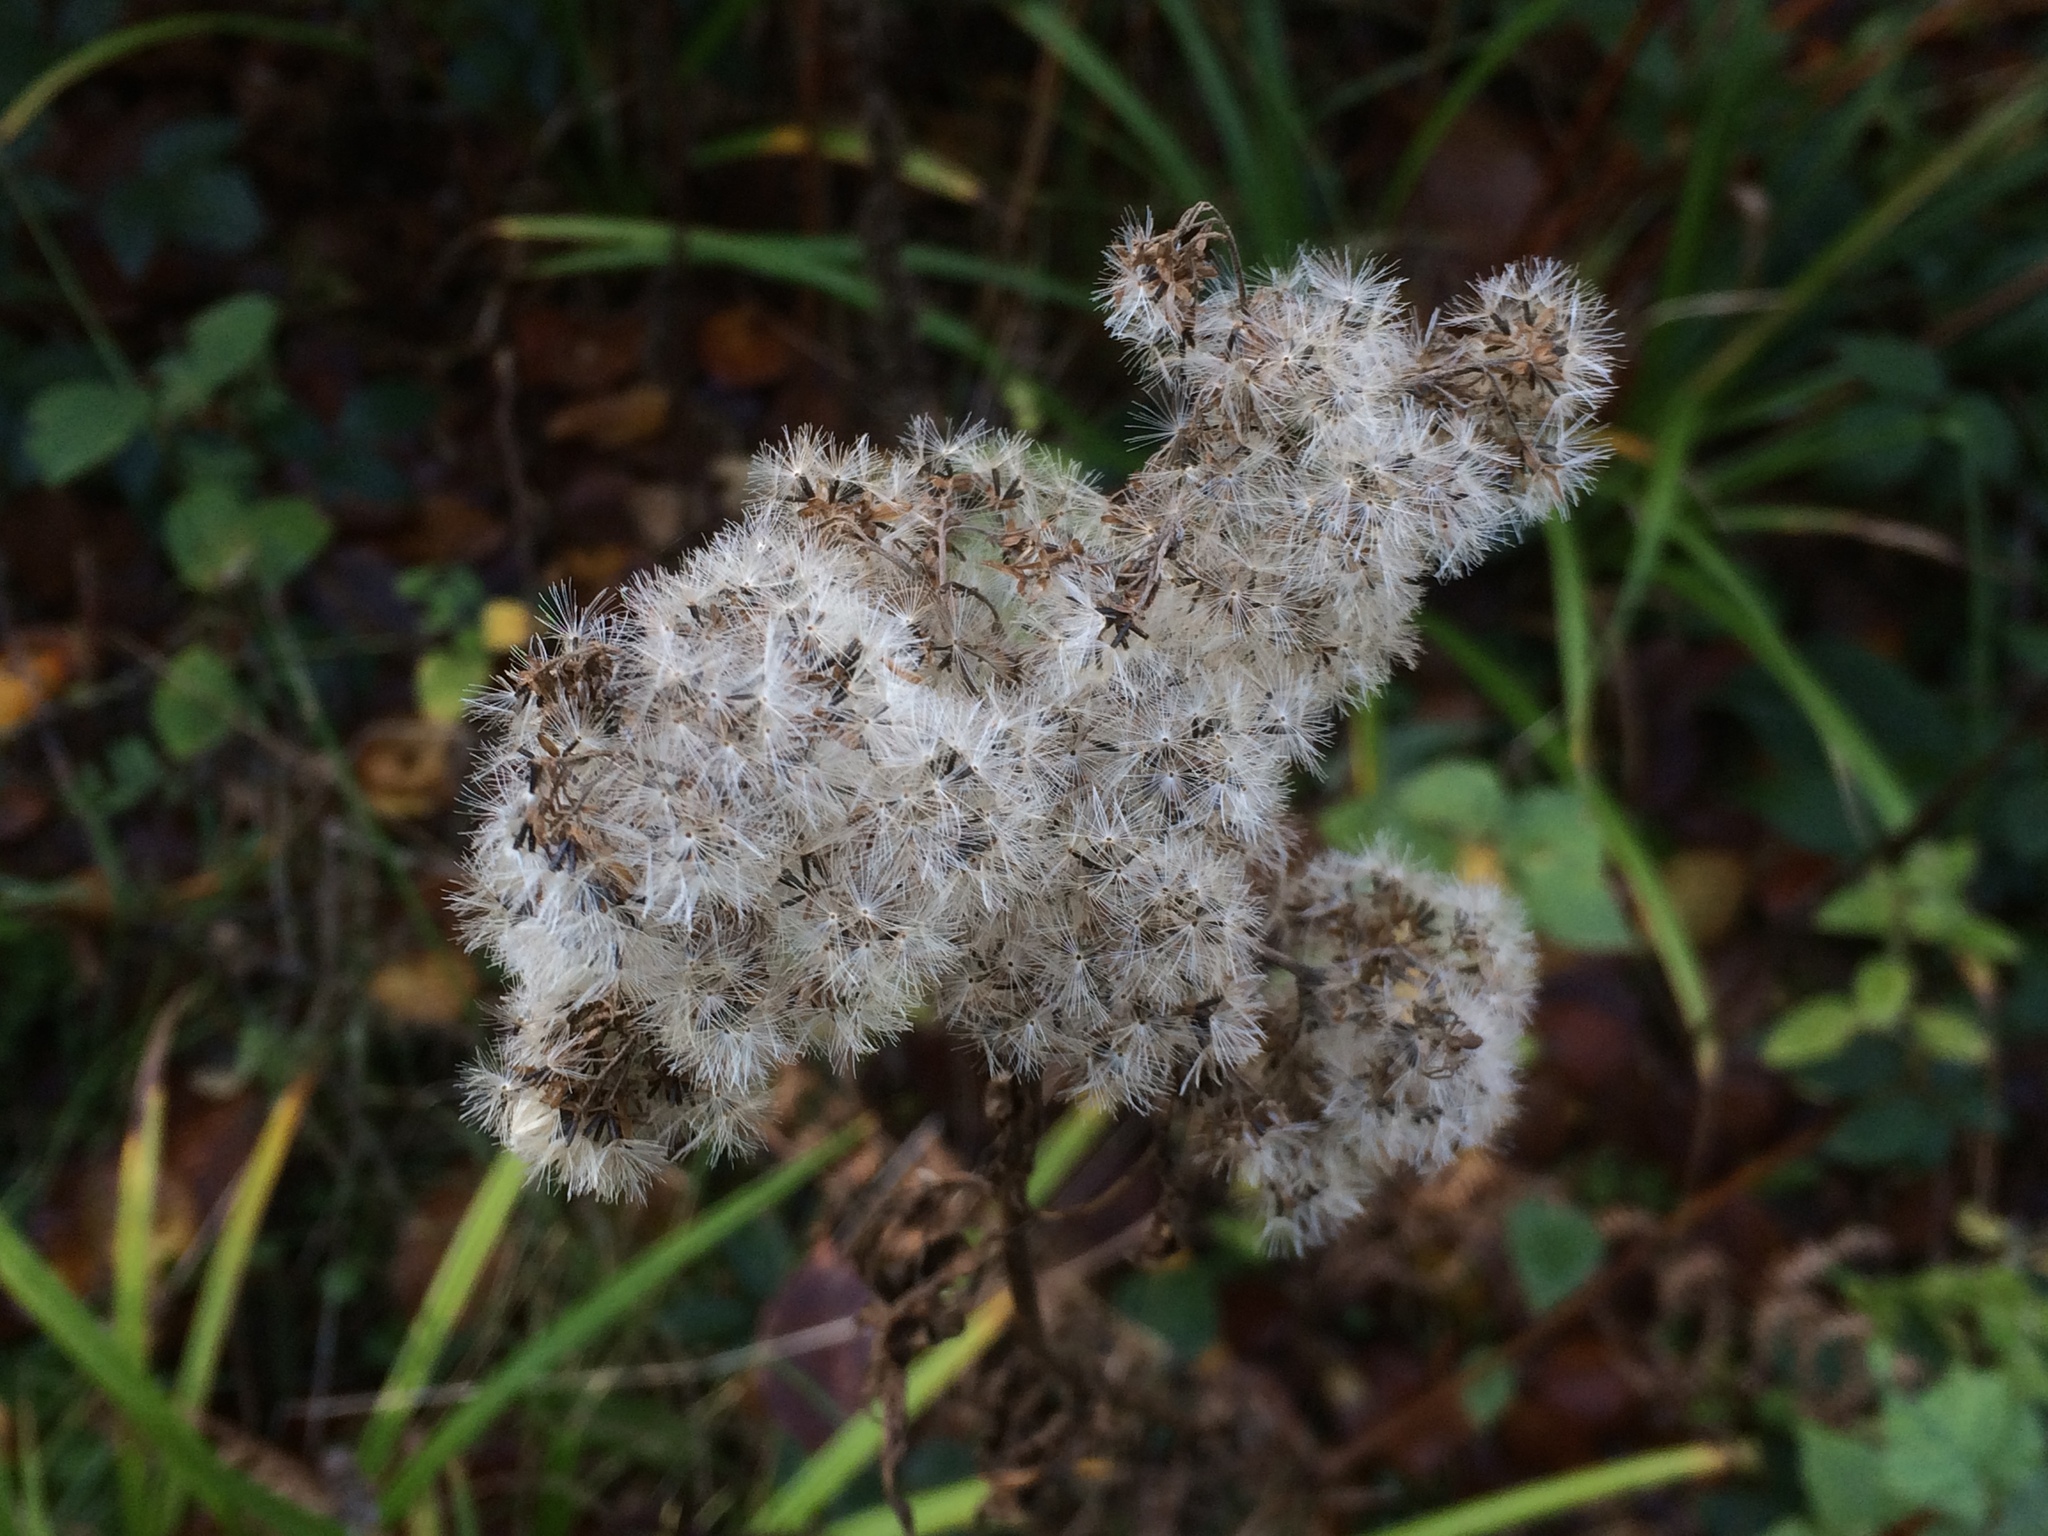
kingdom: Plantae
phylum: Tracheophyta
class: Magnoliopsida
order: Asterales
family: Asteraceae
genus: Eupatorium
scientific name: Eupatorium cannabinum
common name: Hemp-agrimony
